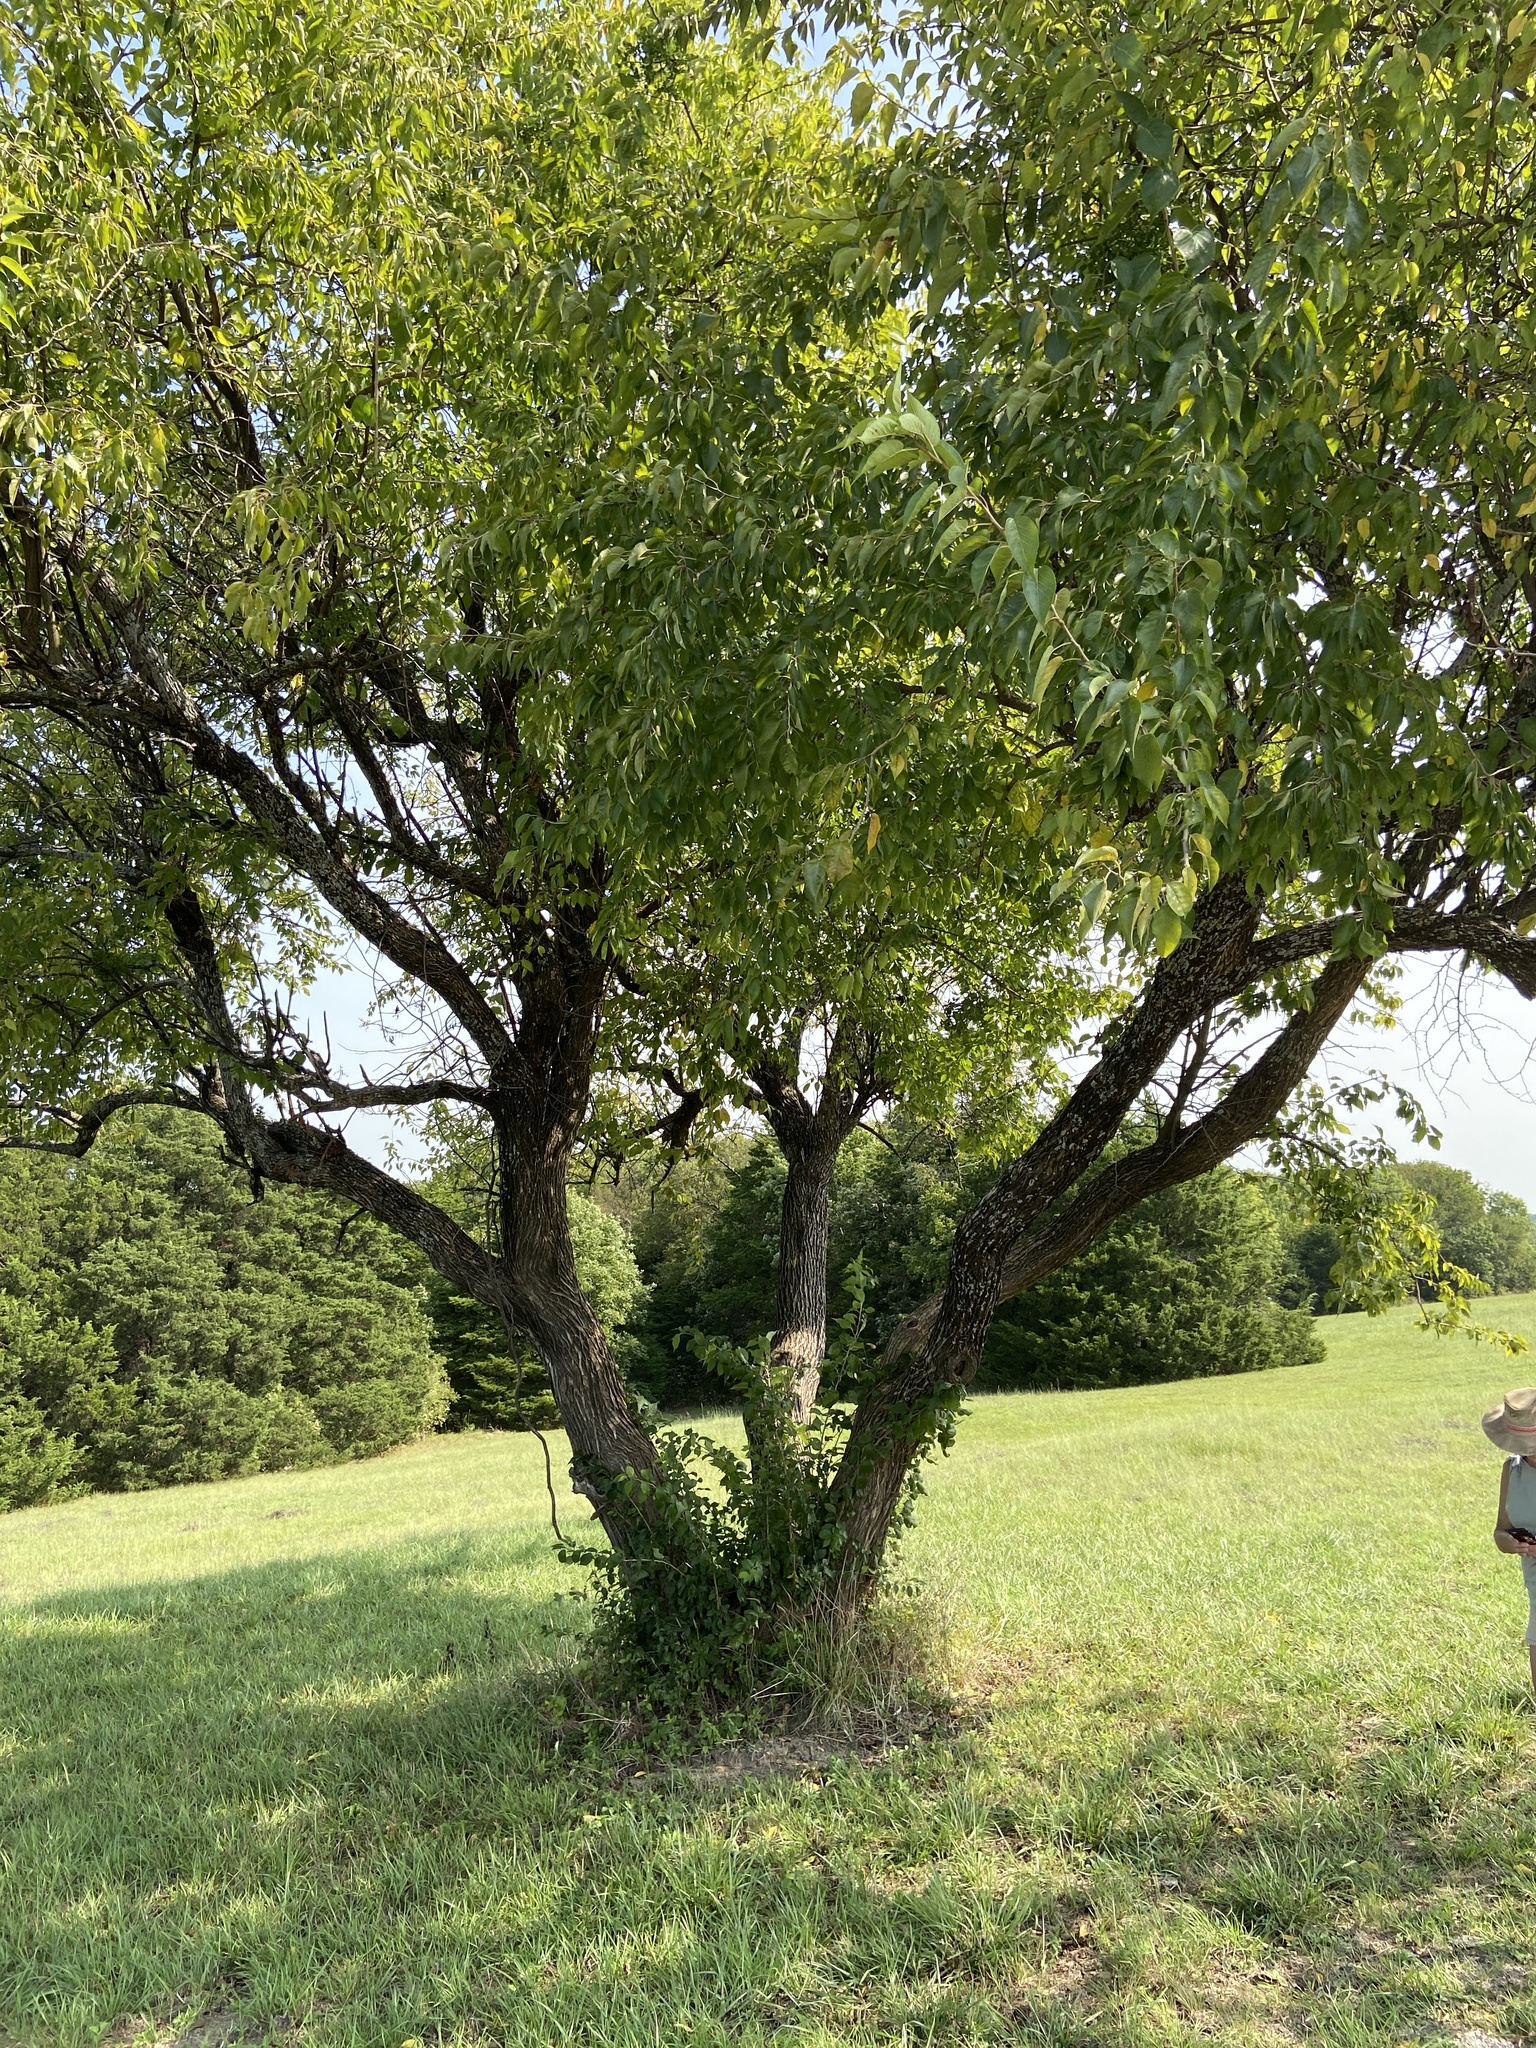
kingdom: Plantae
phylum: Tracheophyta
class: Magnoliopsida
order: Rosales
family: Moraceae
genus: Maclura
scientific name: Maclura pomifera
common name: Osage-orange
